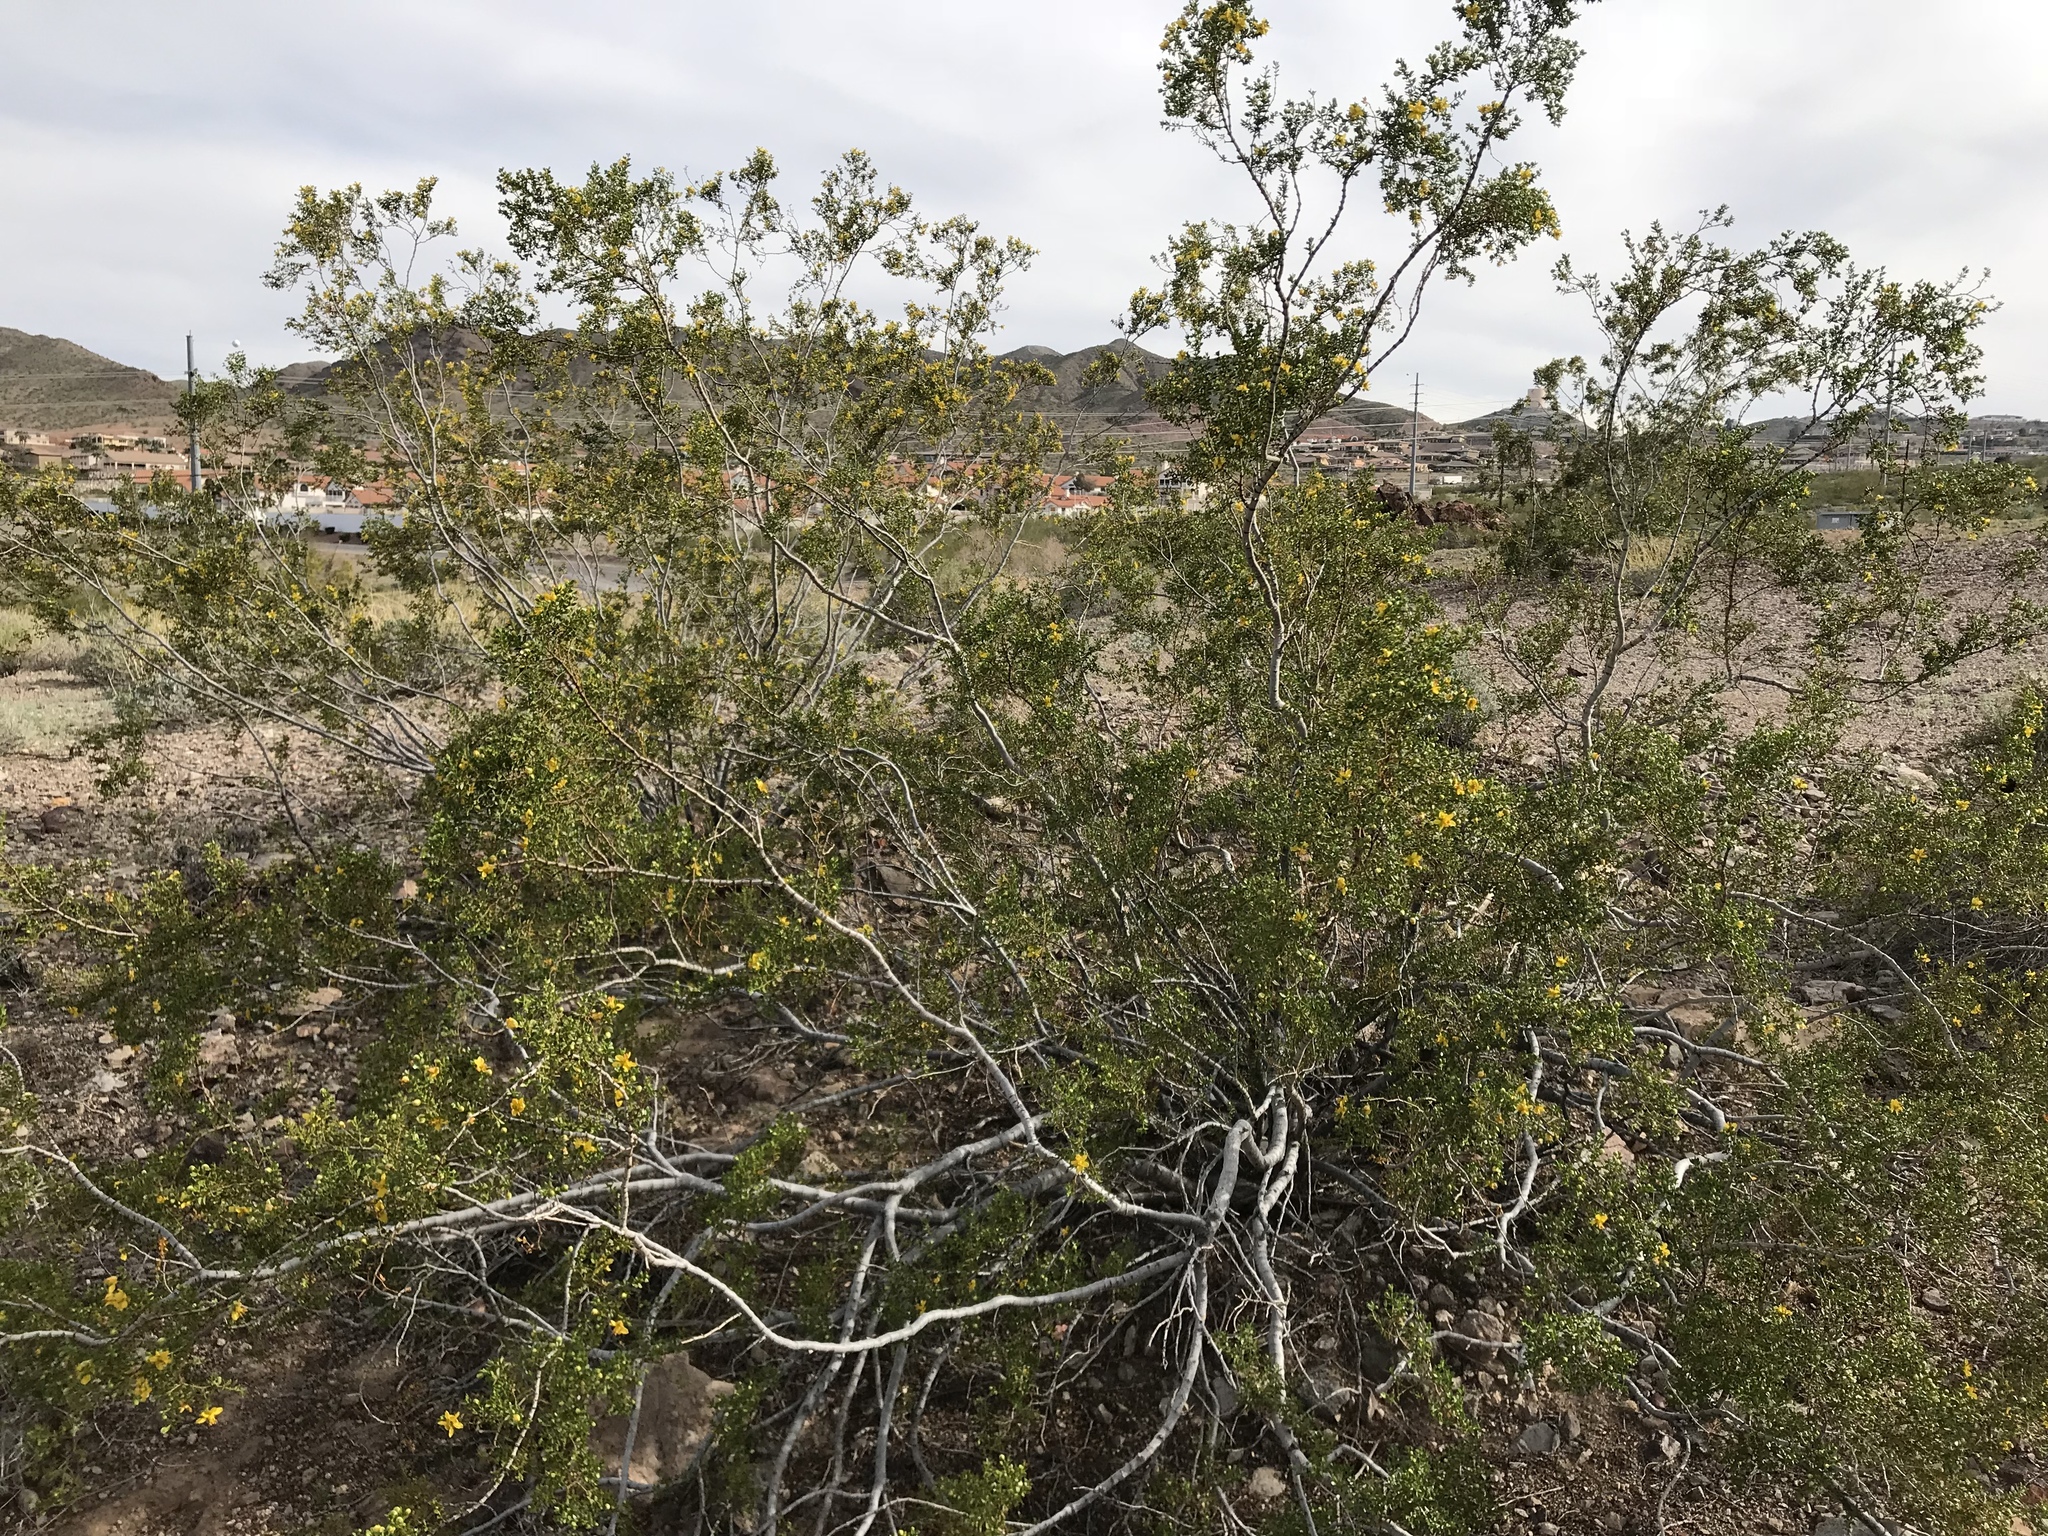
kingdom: Plantae
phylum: Tracheophyta
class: Magnoliopsida
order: Zygophyllales
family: Zygophyllaceae
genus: Larrea
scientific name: Larrea tridentata
